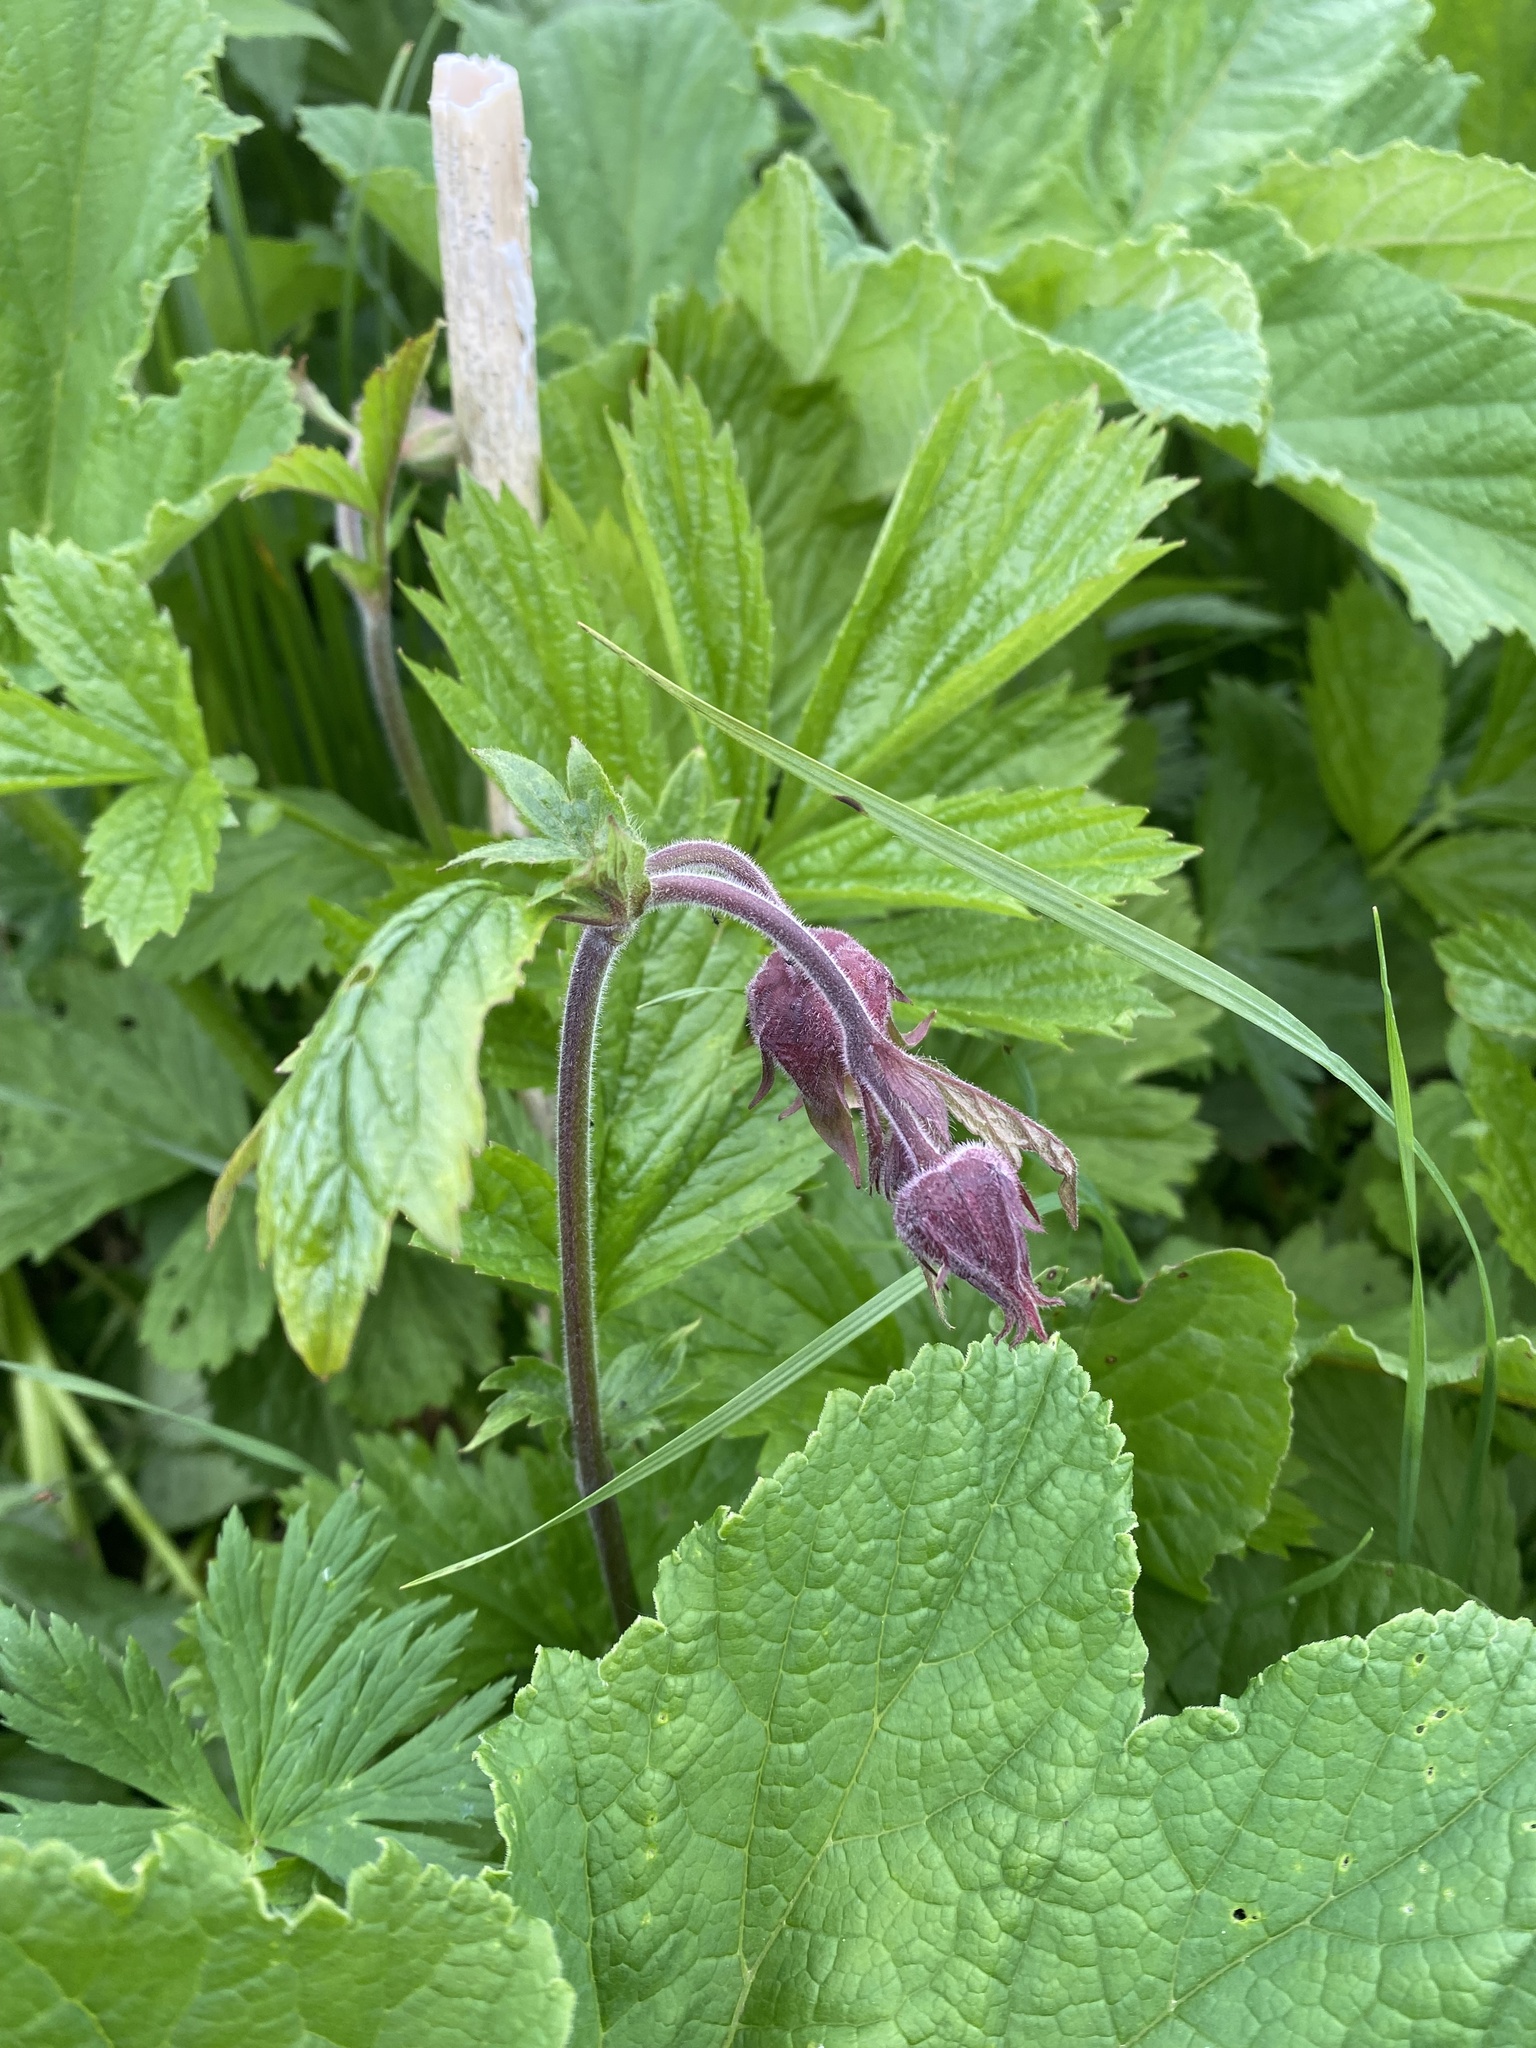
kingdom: Plantae
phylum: Tracheophyta
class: Magnoliopsida
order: Rosales
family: Rosaceae
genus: Geum
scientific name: Geum rivale
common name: Water avens
